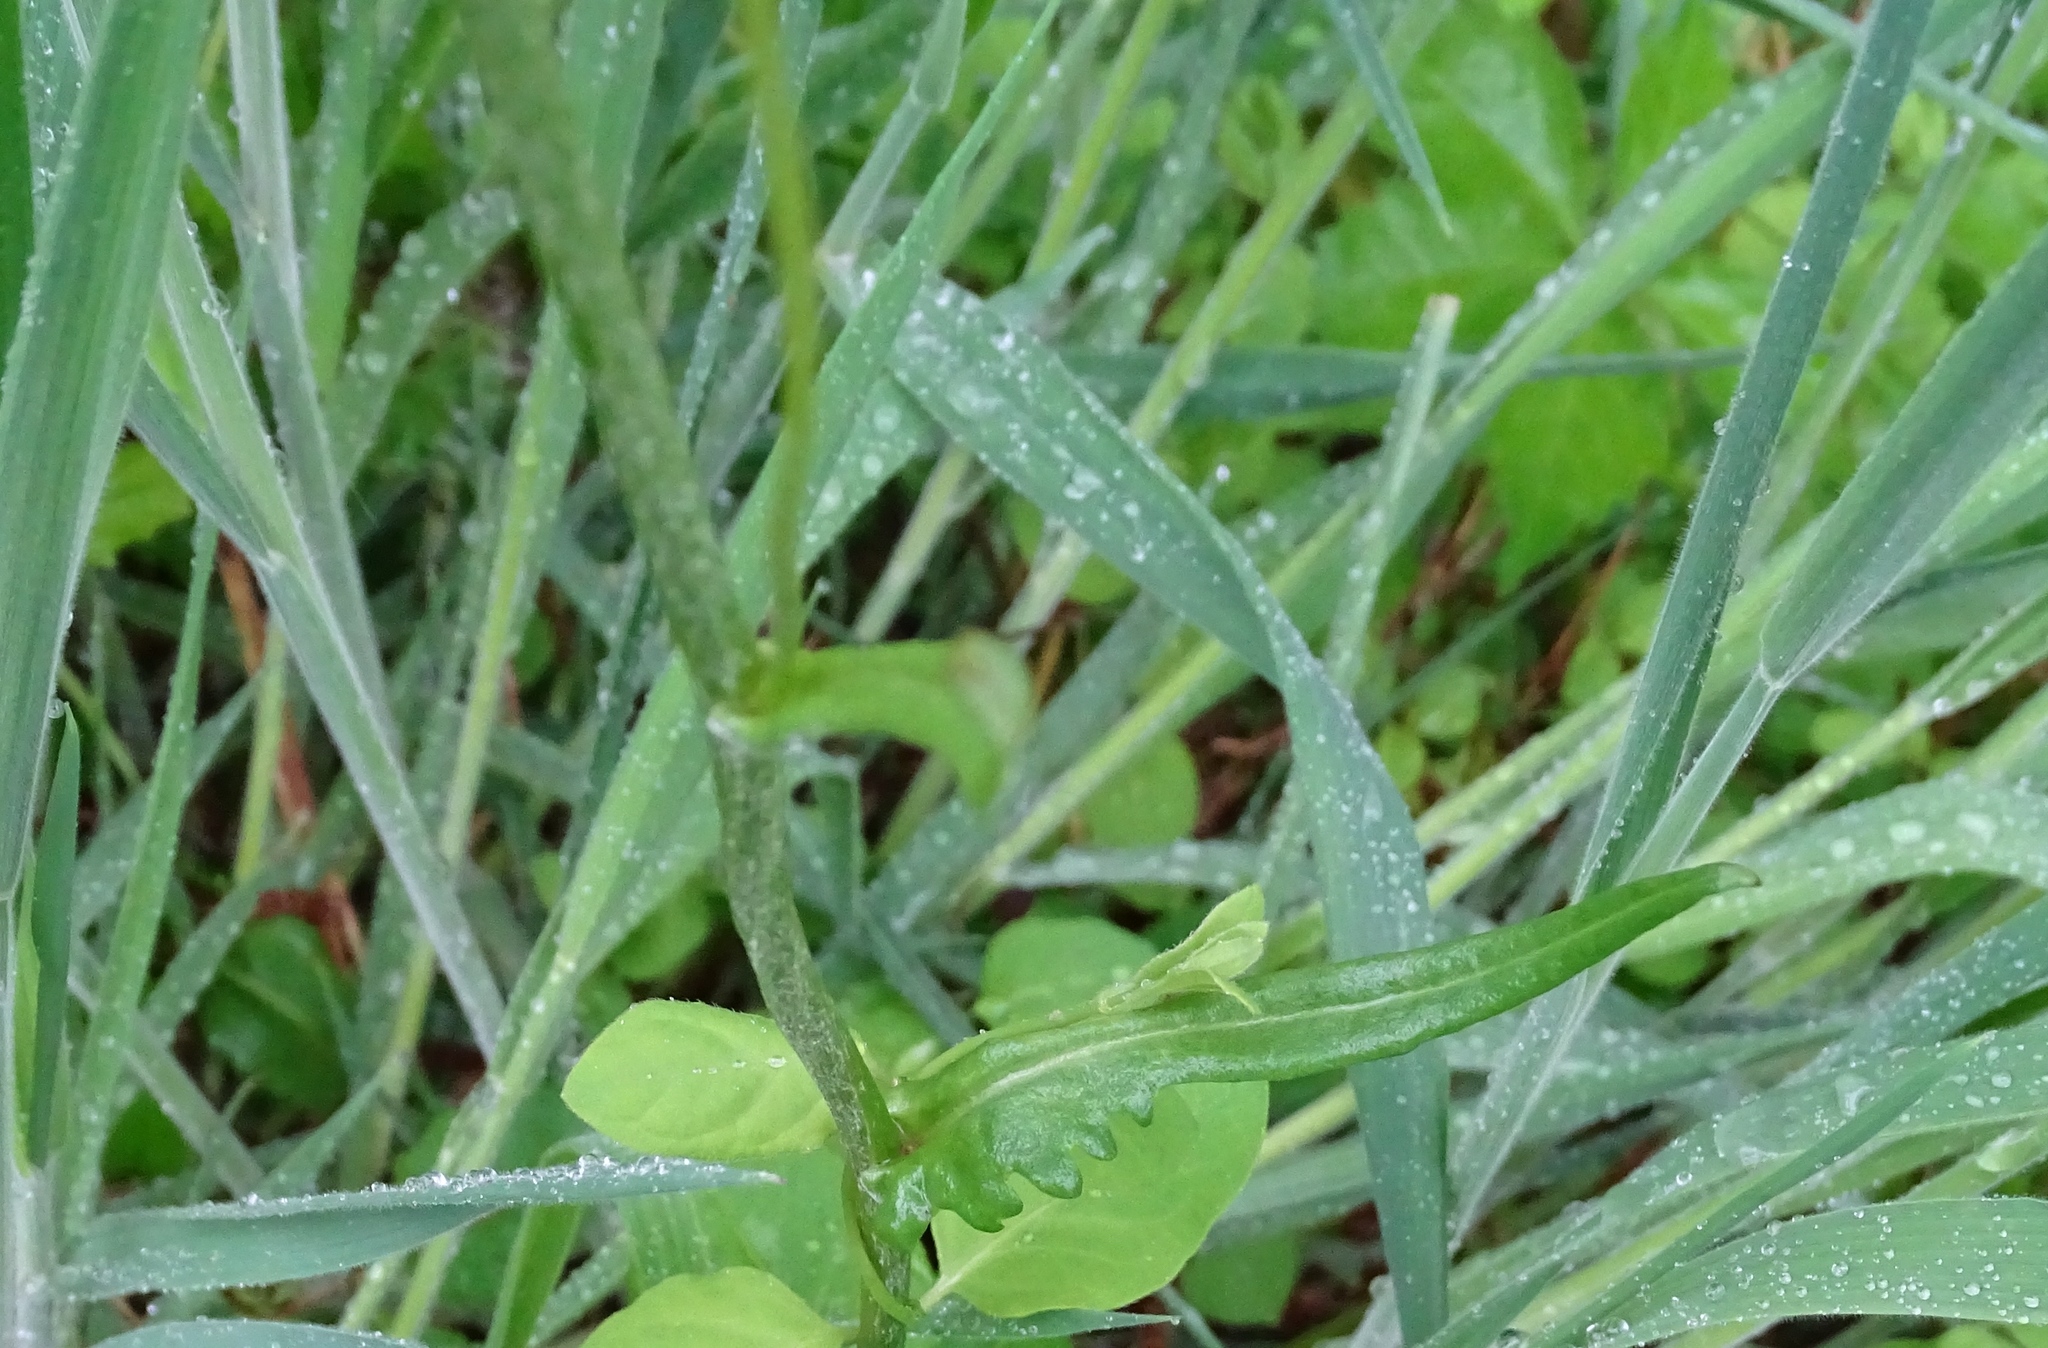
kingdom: Plantae
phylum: Tracheophyta
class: Magnoliopsida
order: Asterales
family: Asteraceae
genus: Packera
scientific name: Packera dubia
